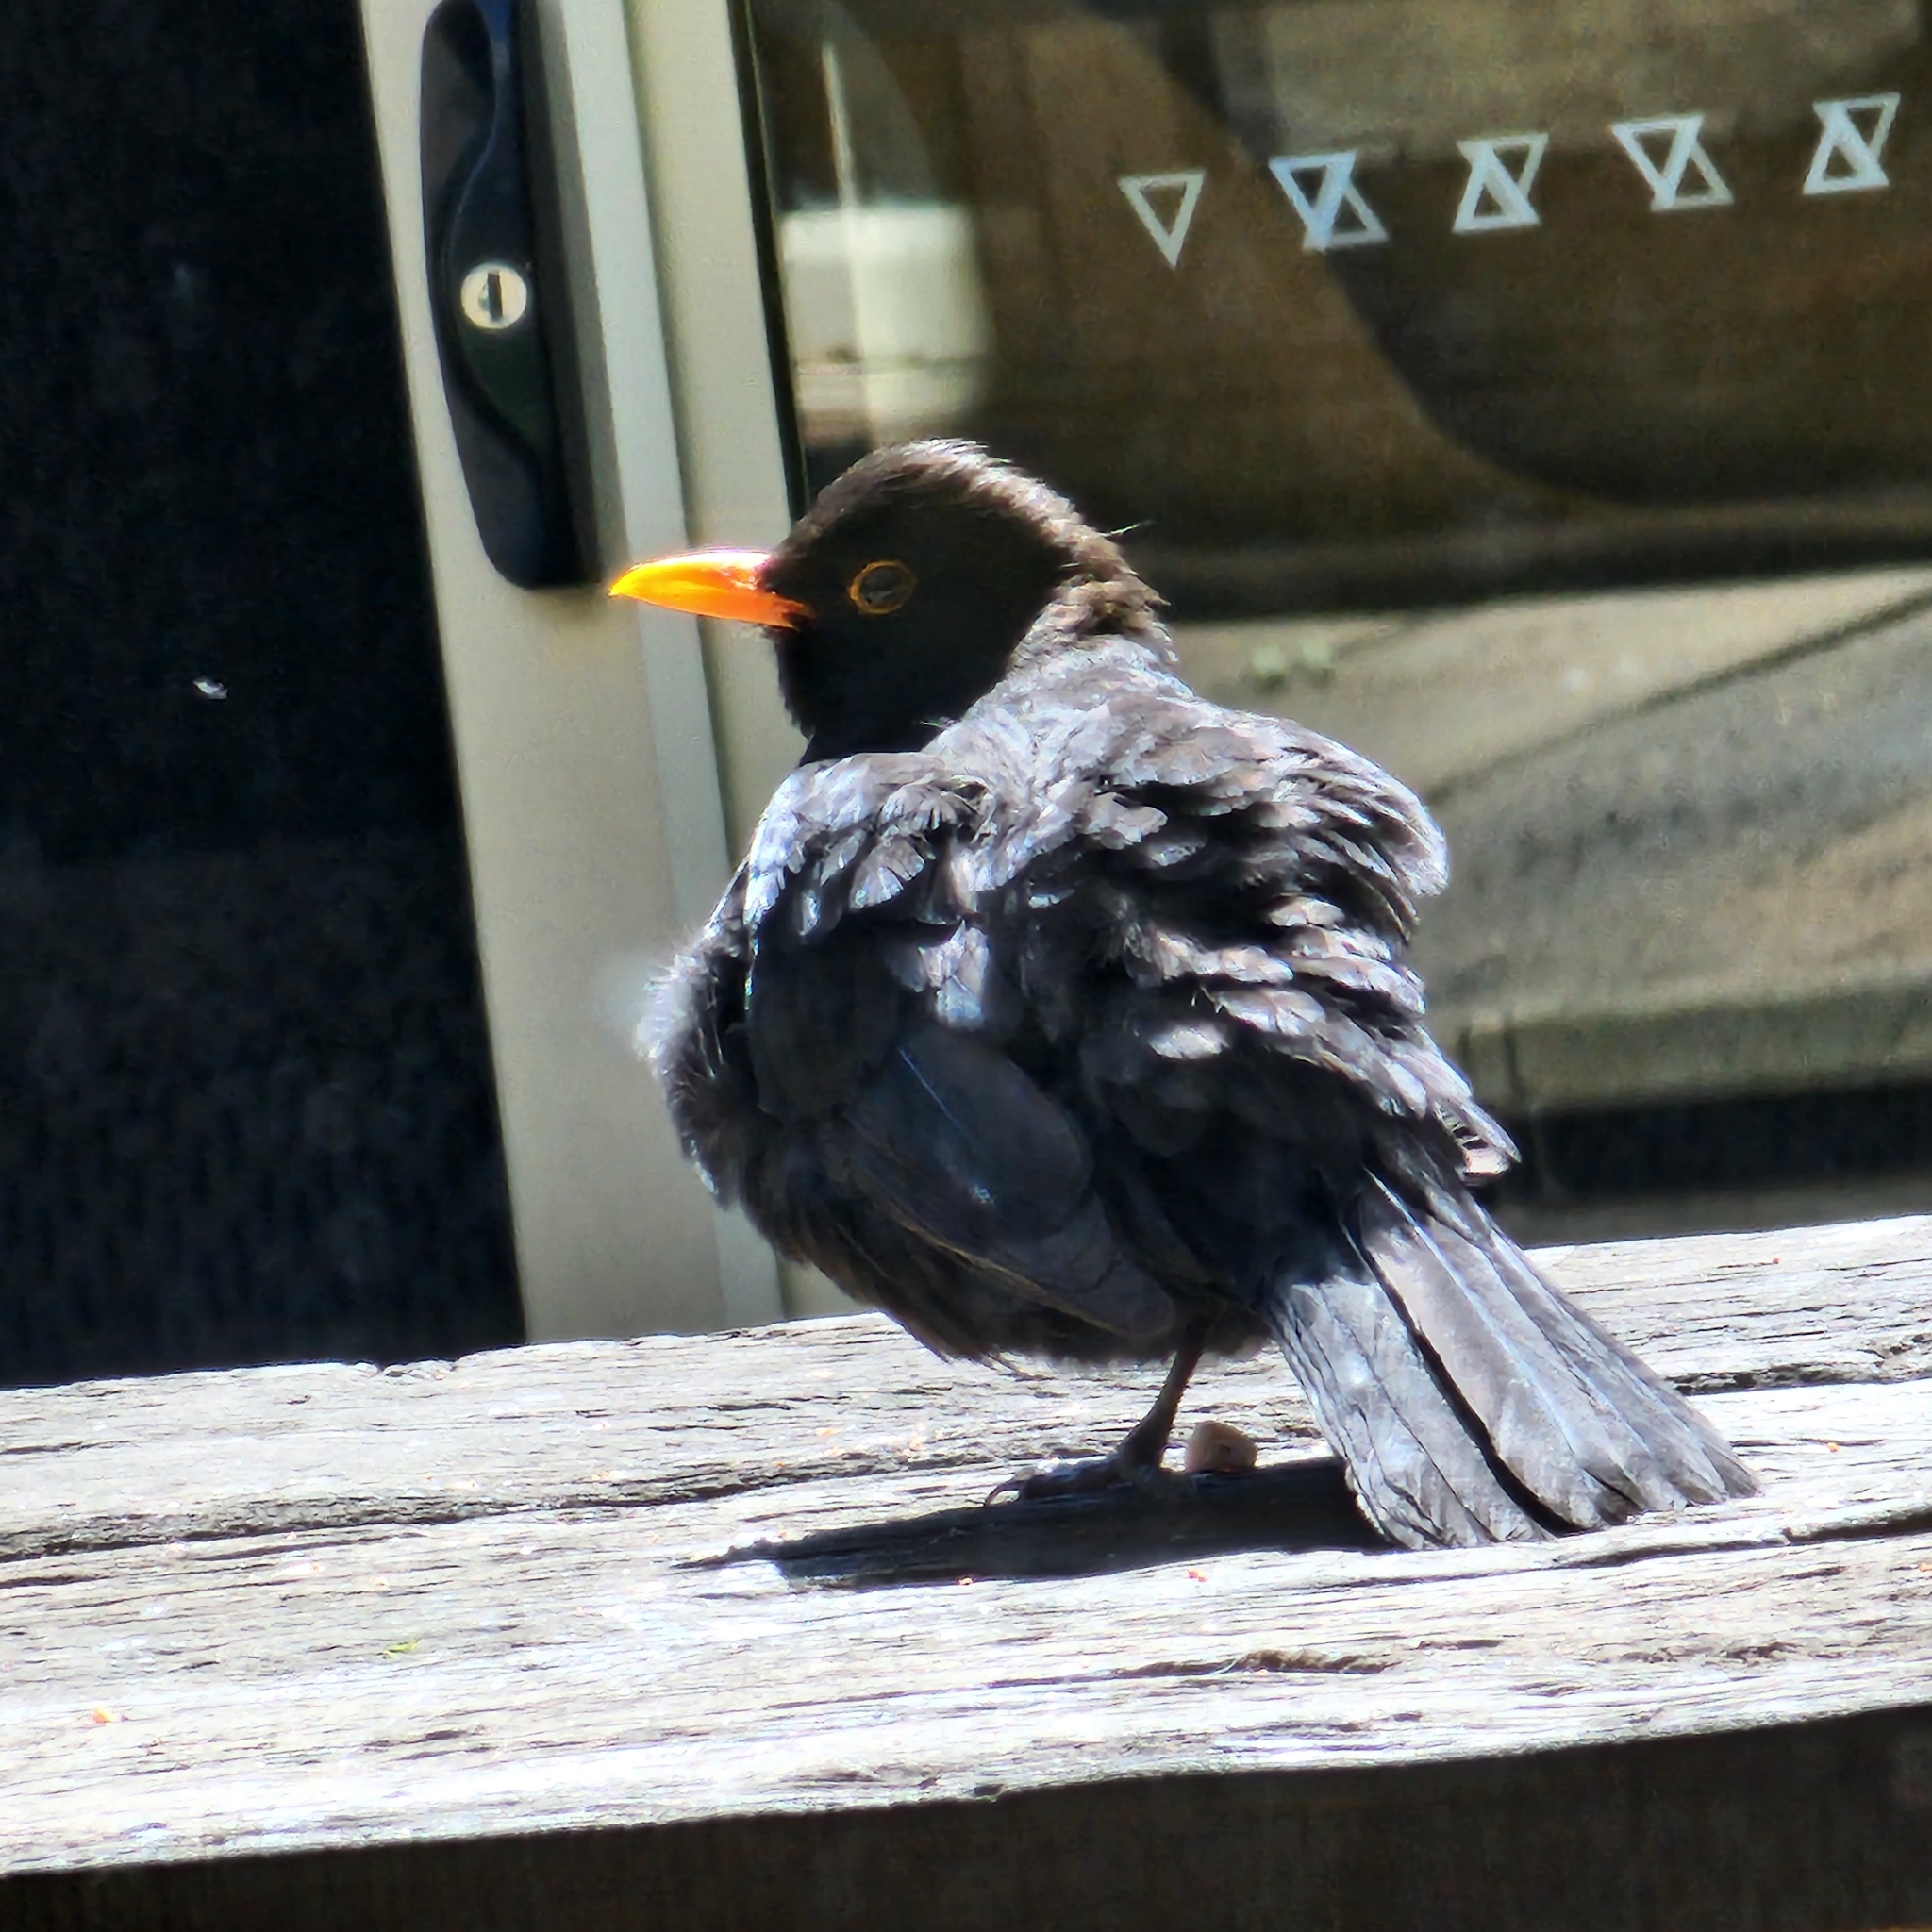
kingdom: Animalia
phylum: Chordata
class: Aves
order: Passeriformes
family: Turdidae
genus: Turdus
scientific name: Turdus merula
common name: Common blackbird
